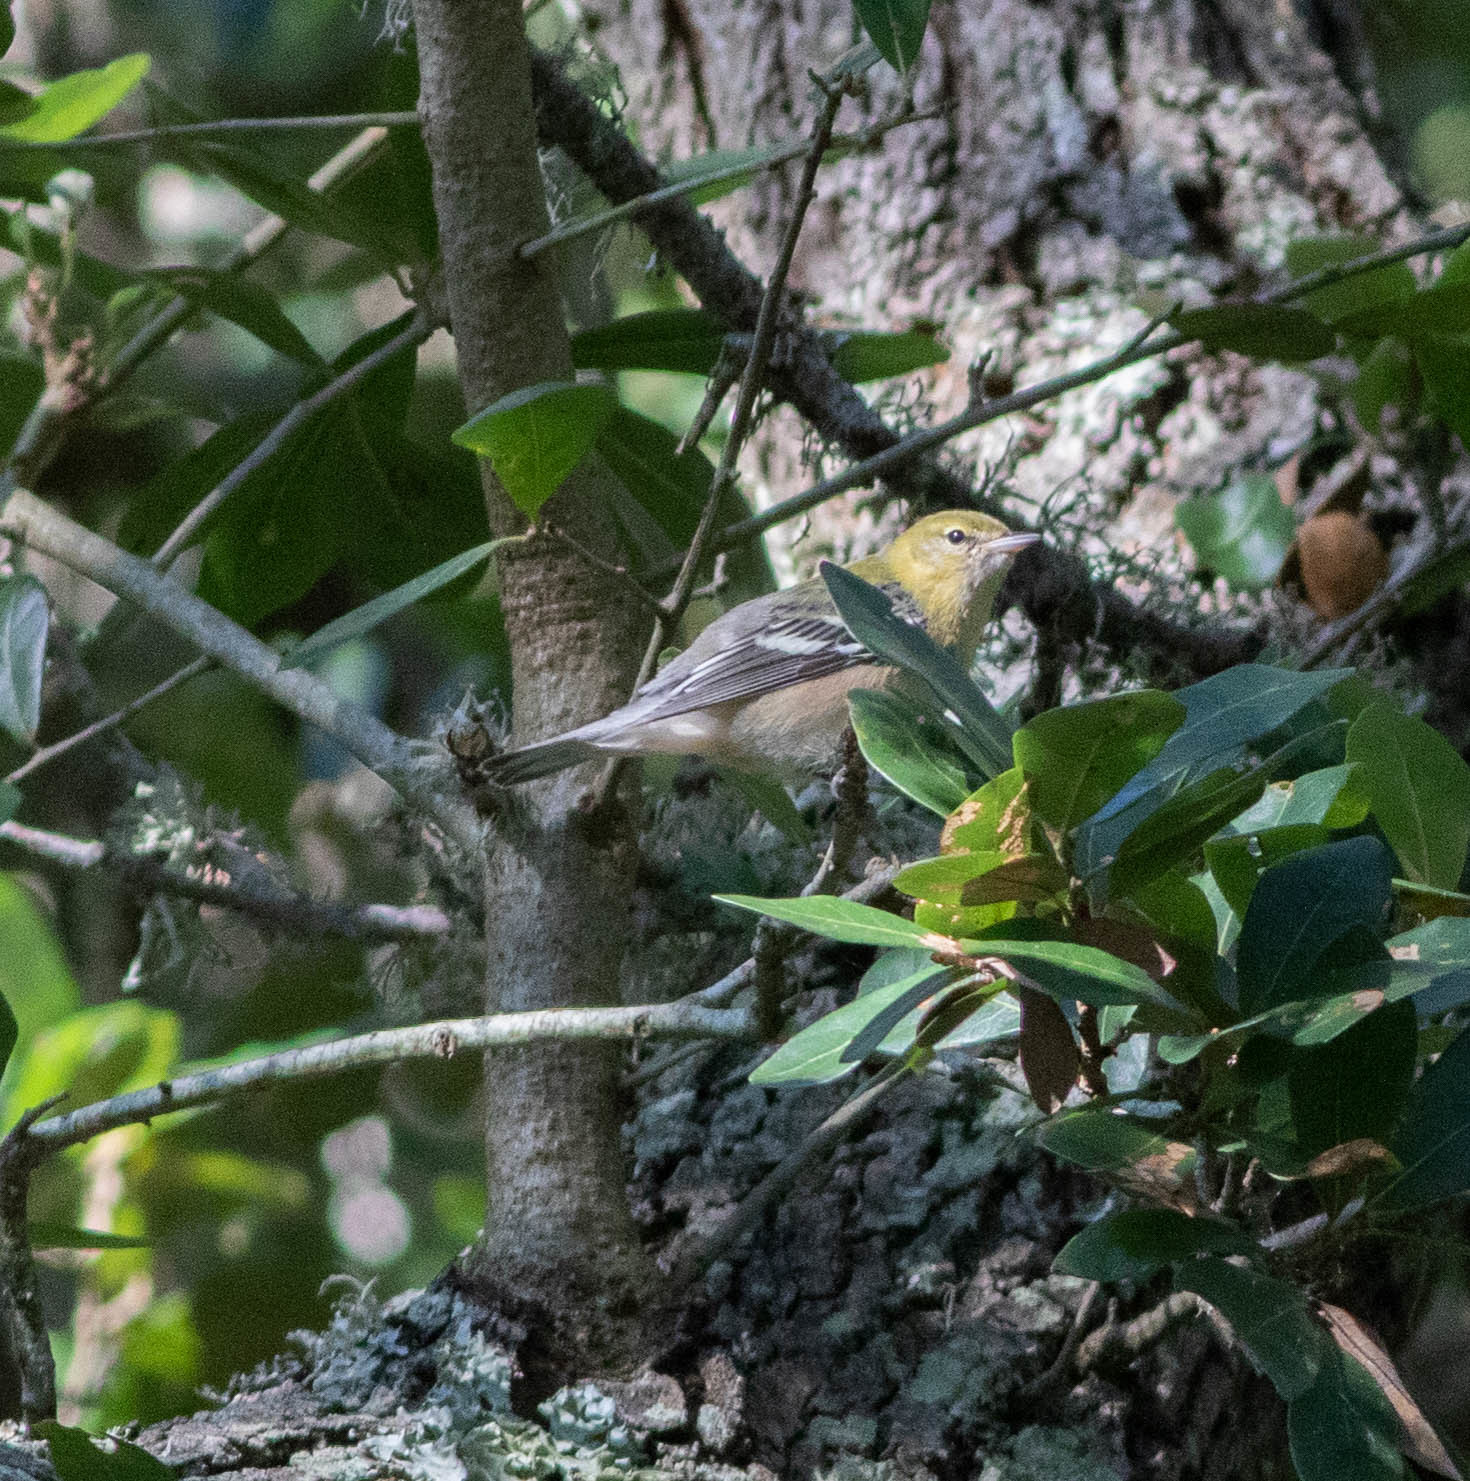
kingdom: Animalia
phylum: Chordata
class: Aves
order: Passeriformes
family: Parulidae
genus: Setophaga
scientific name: Setophaga castanea
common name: Bay-breasted warbler
